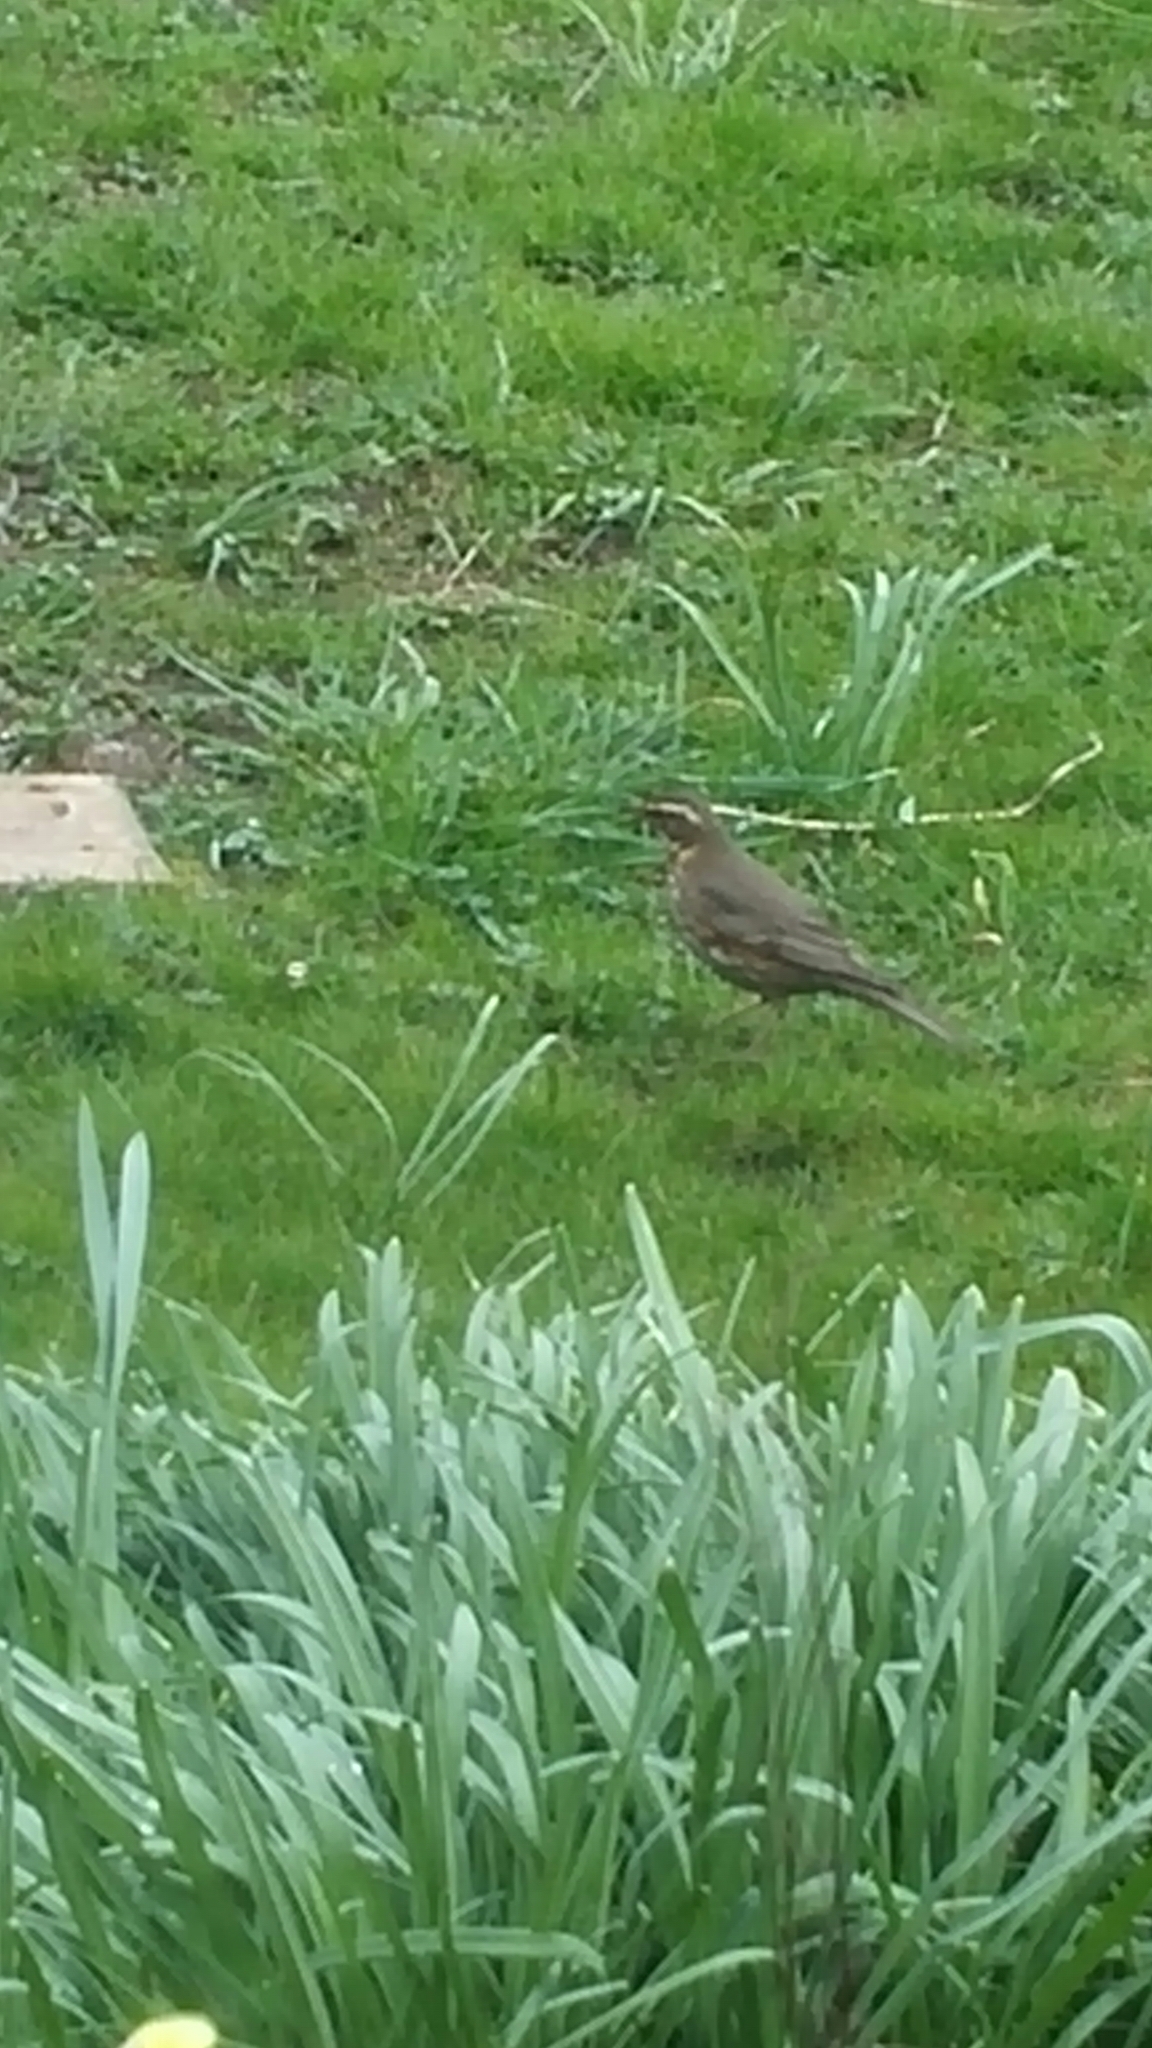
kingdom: Animalia
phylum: Chordata
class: Aves
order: Passeriformes
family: Turdidae
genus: Turdus
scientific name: Turdus iliacus
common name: Redwing
